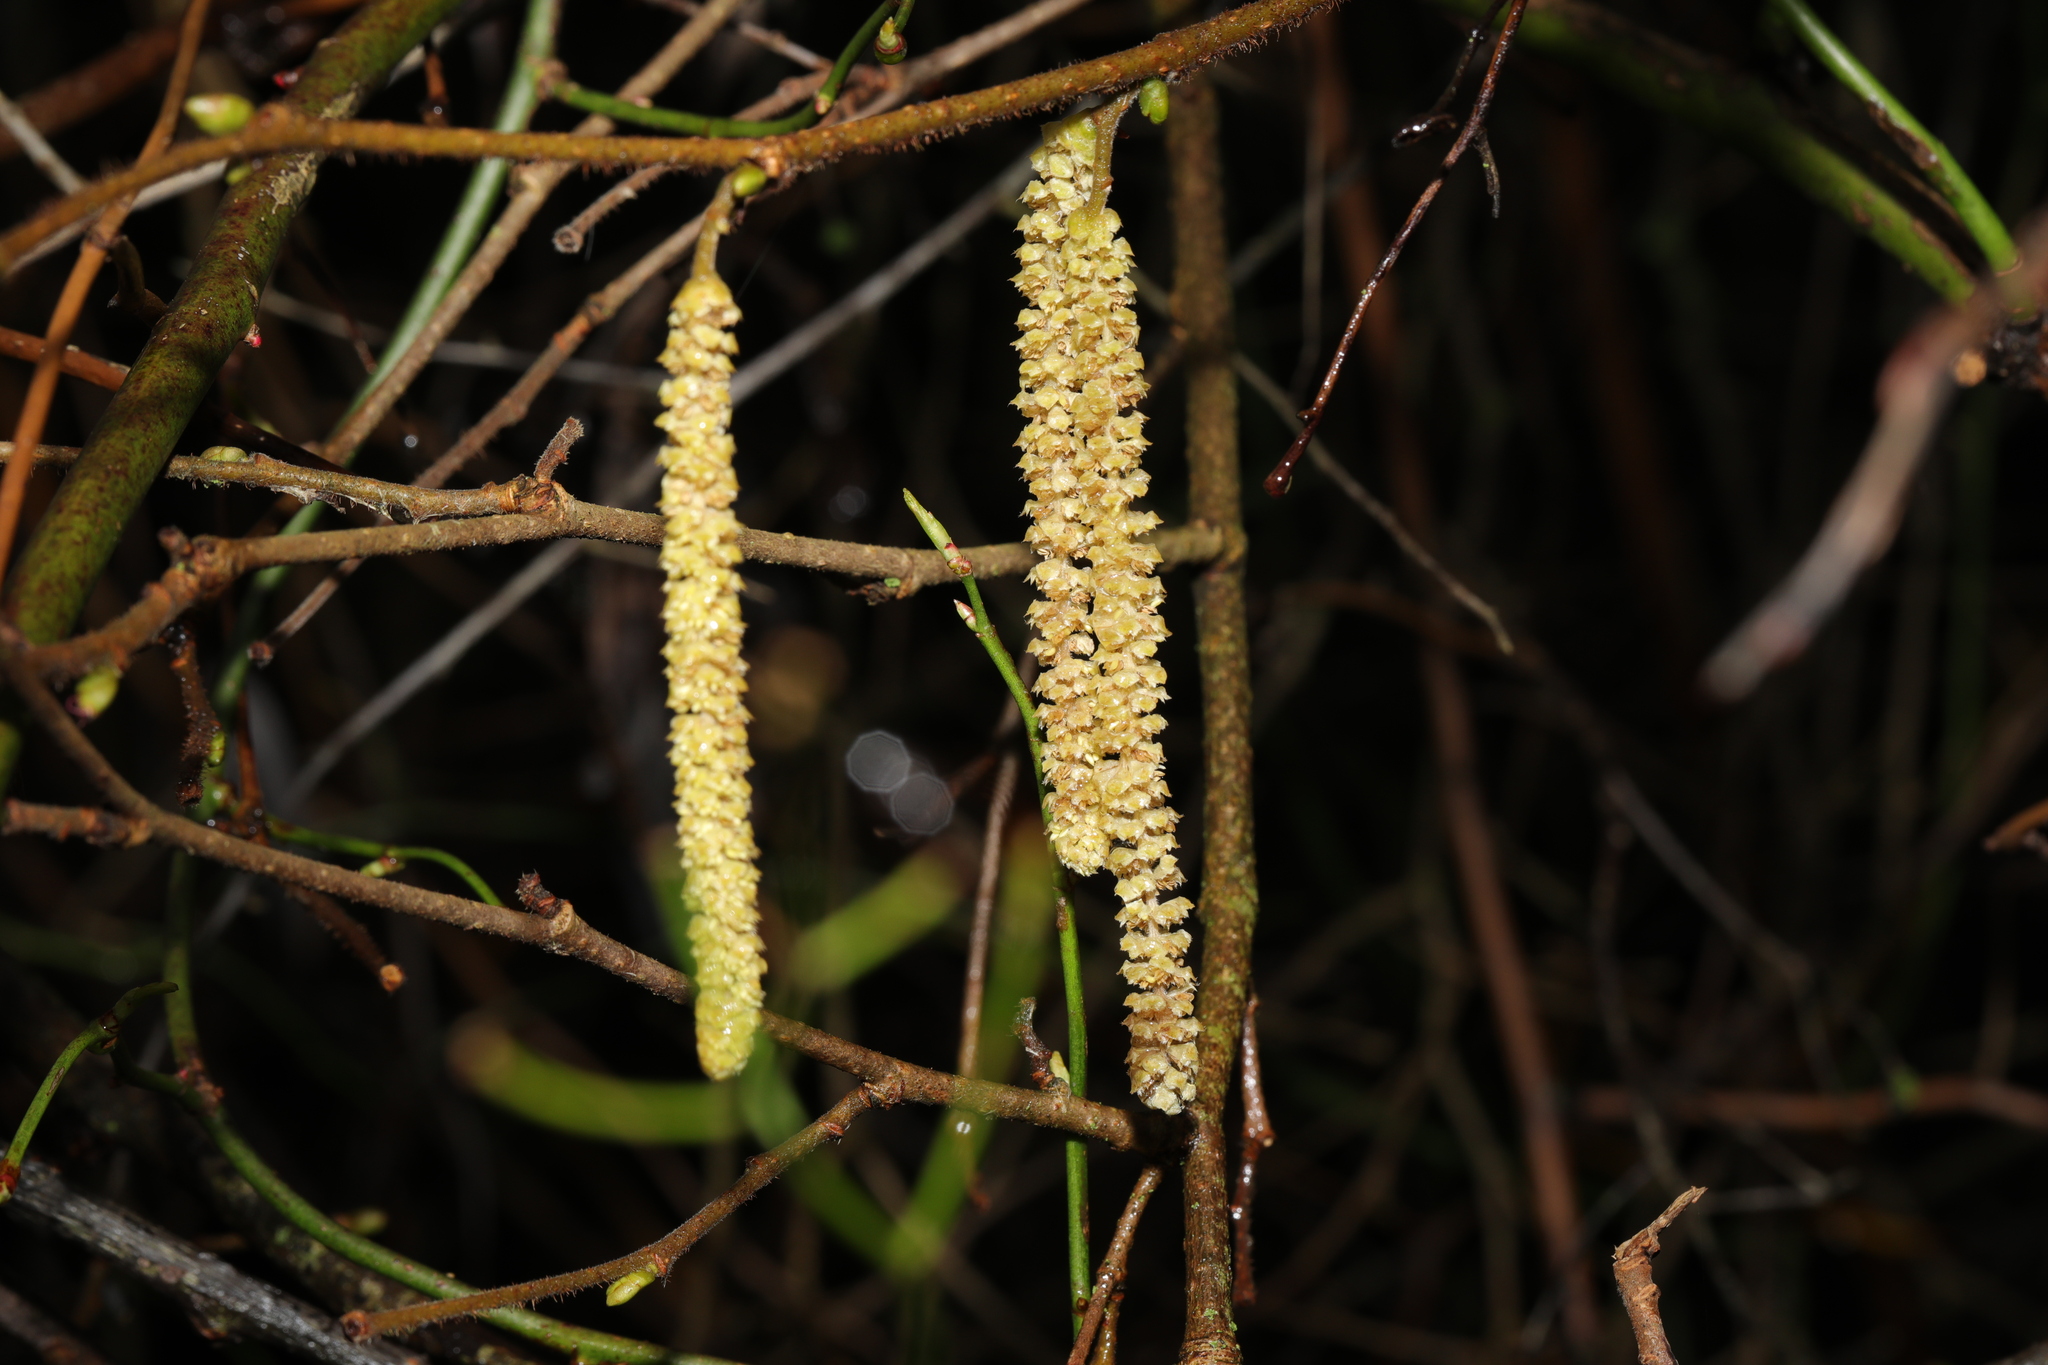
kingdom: Plantae
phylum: Tracheophyta
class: Magnoliopsida
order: Fagales
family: Betulaceae
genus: Corylus
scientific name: Corylus avellana
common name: European hazel
